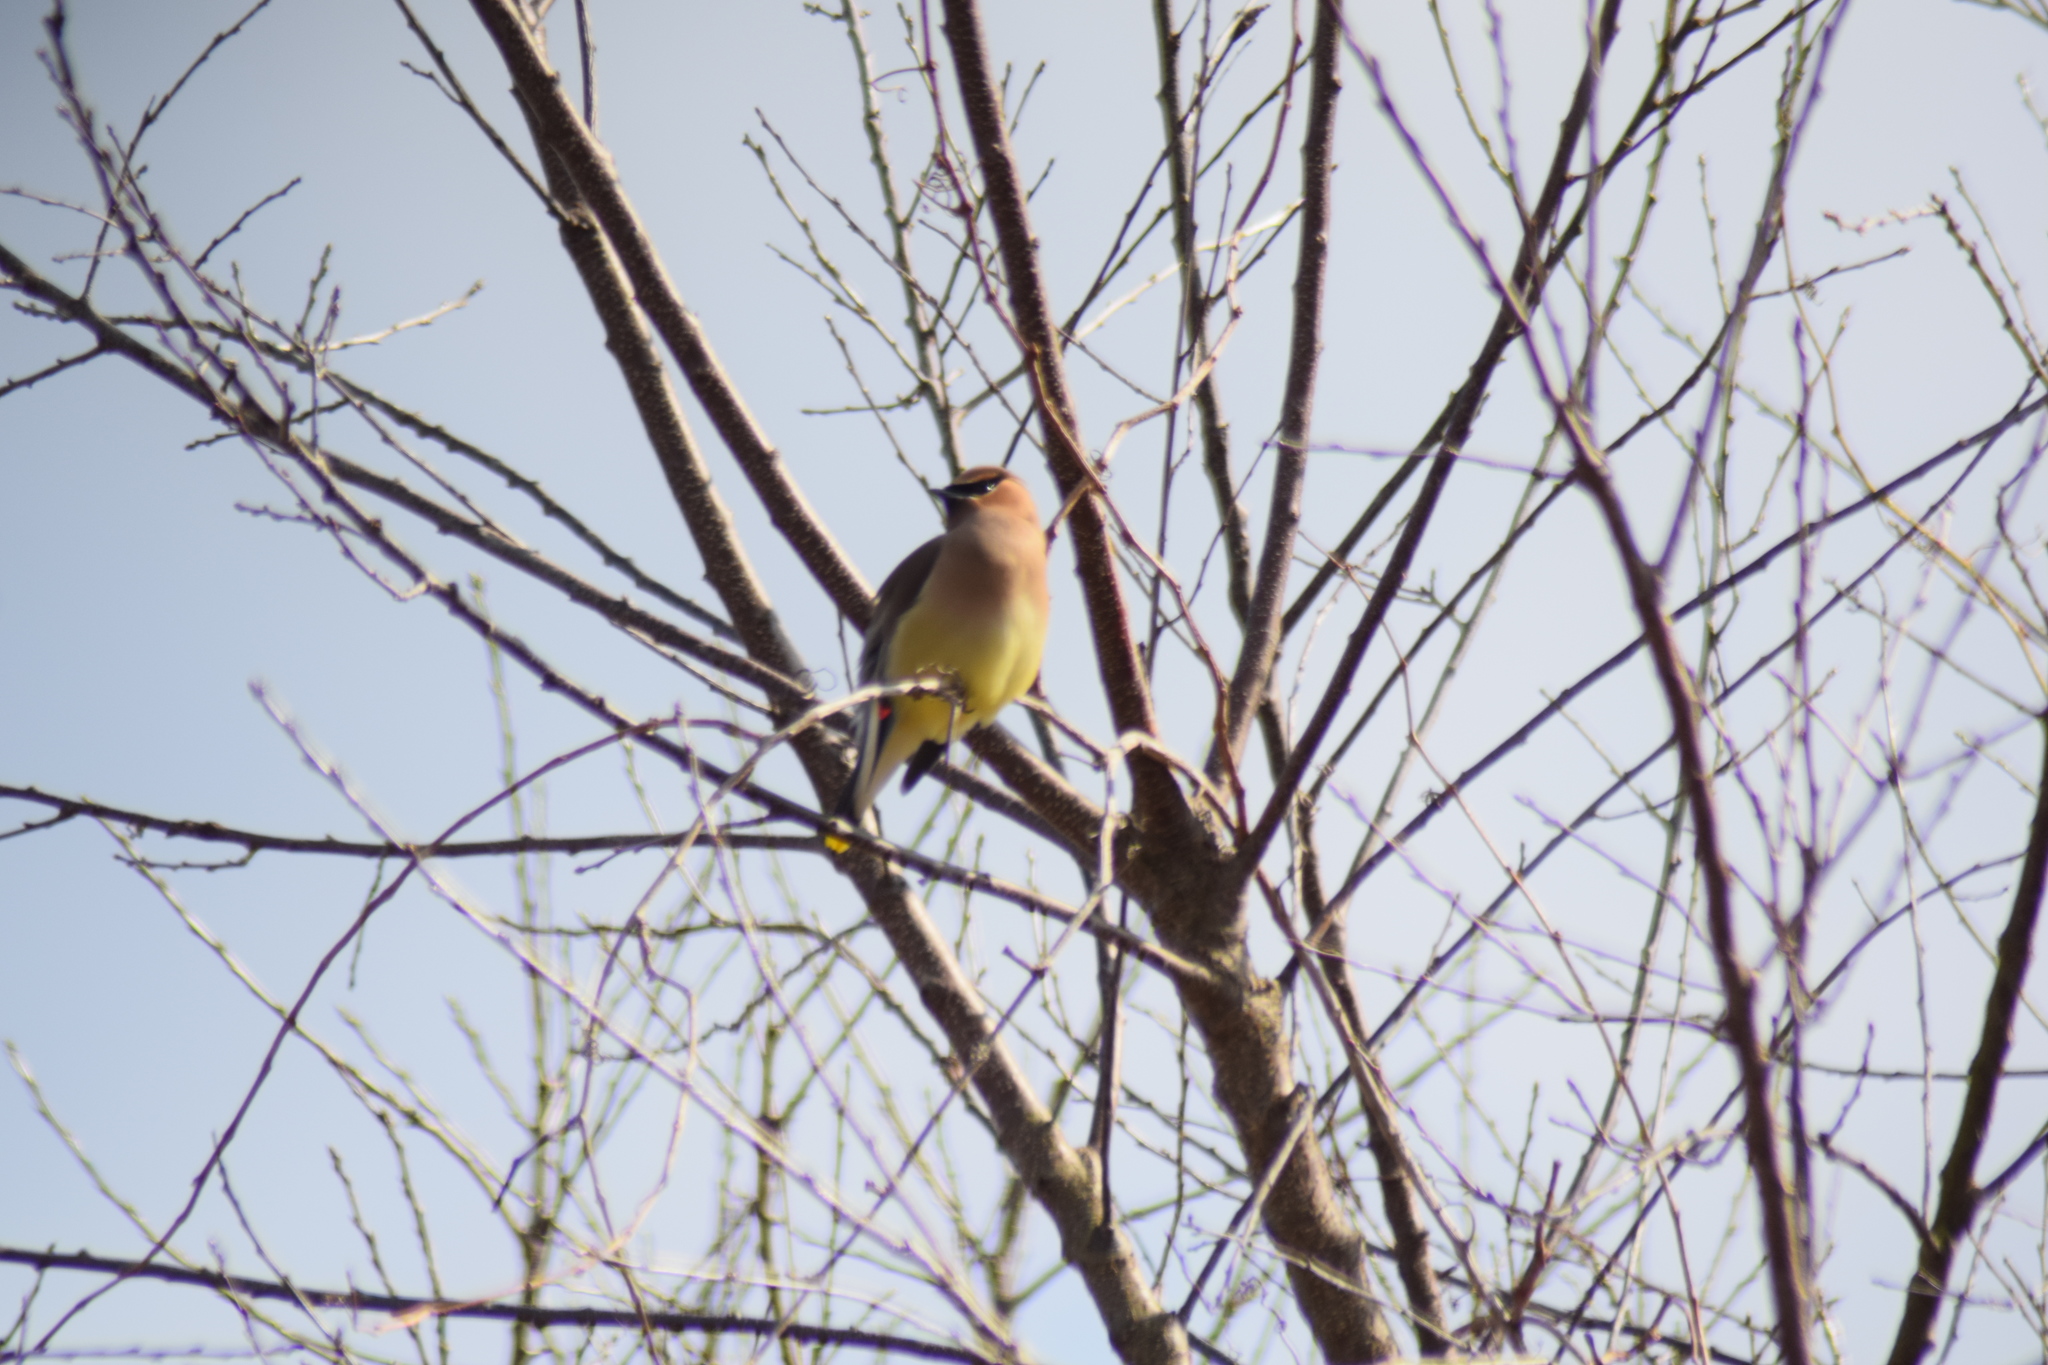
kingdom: Animalia
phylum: Chordata
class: Aves
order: Passeriformes
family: Bombycillidae
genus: Bombycilla
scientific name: Bombycilla cedrorum
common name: Cedar waxwing
